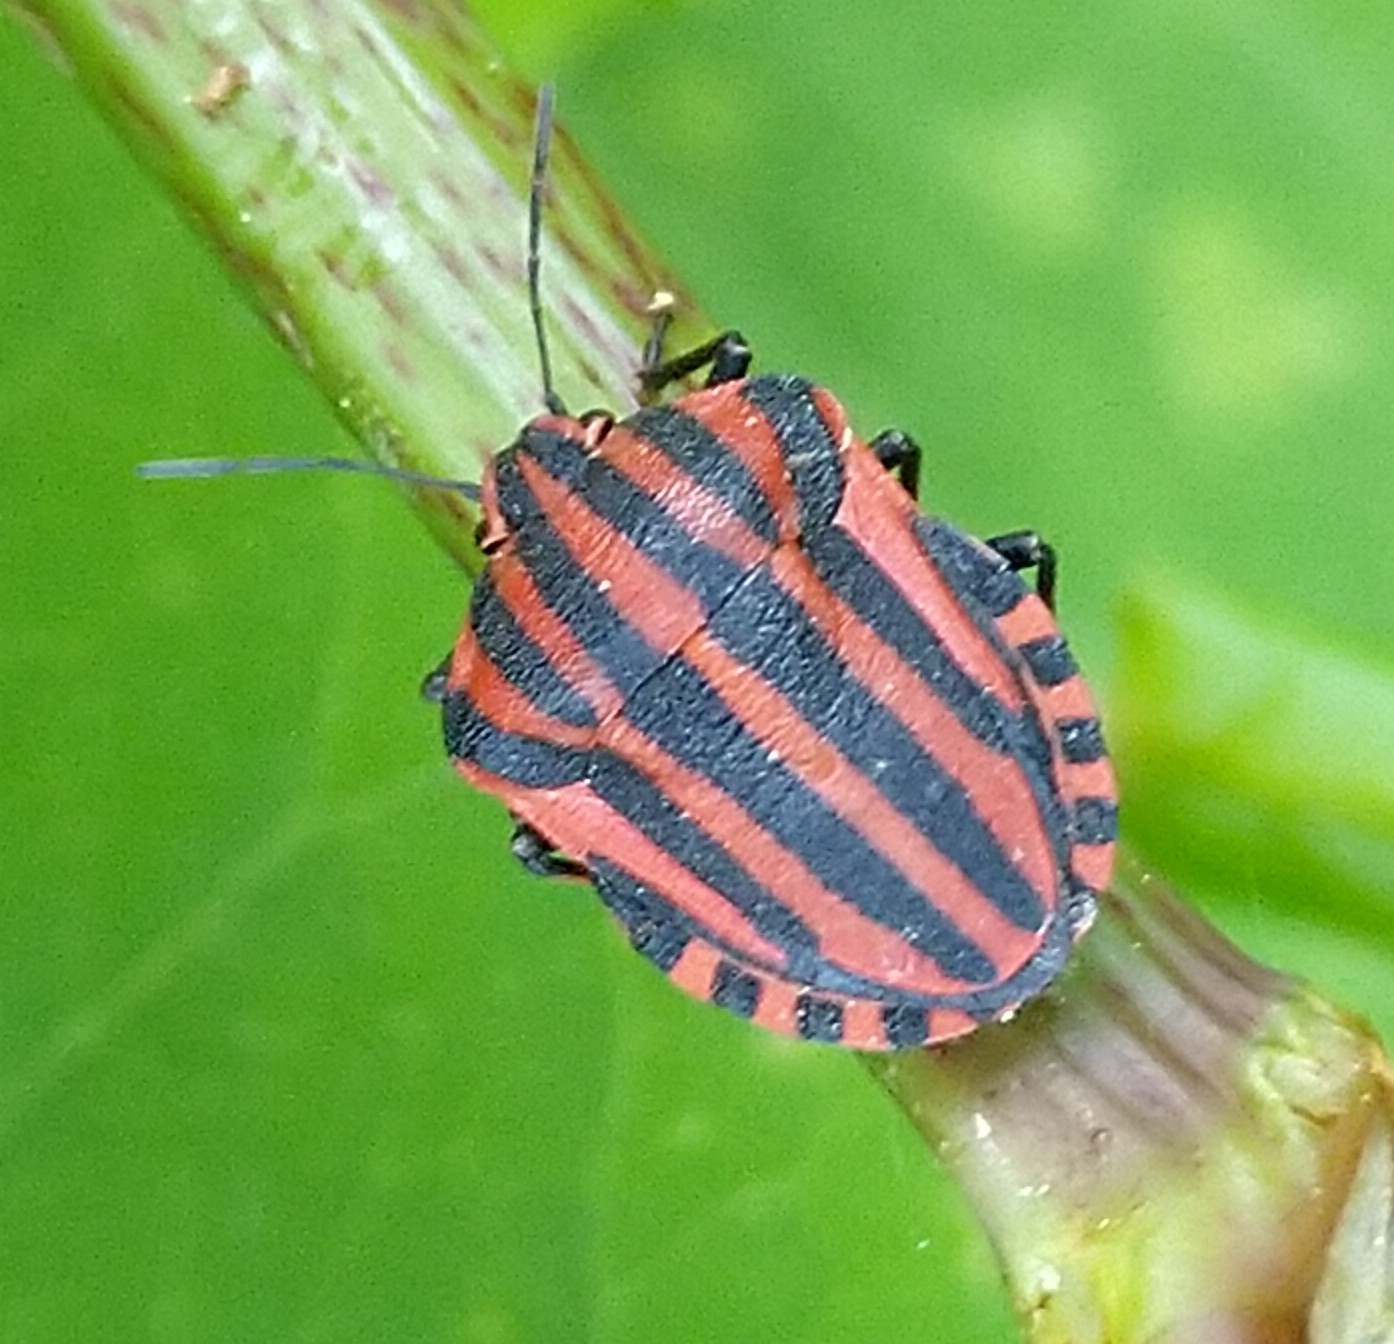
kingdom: Animalia
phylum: Arthropoda
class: Insecta
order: Hemiptera
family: Pentatomidae
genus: Graphosoma
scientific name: Graphosoma italicum
